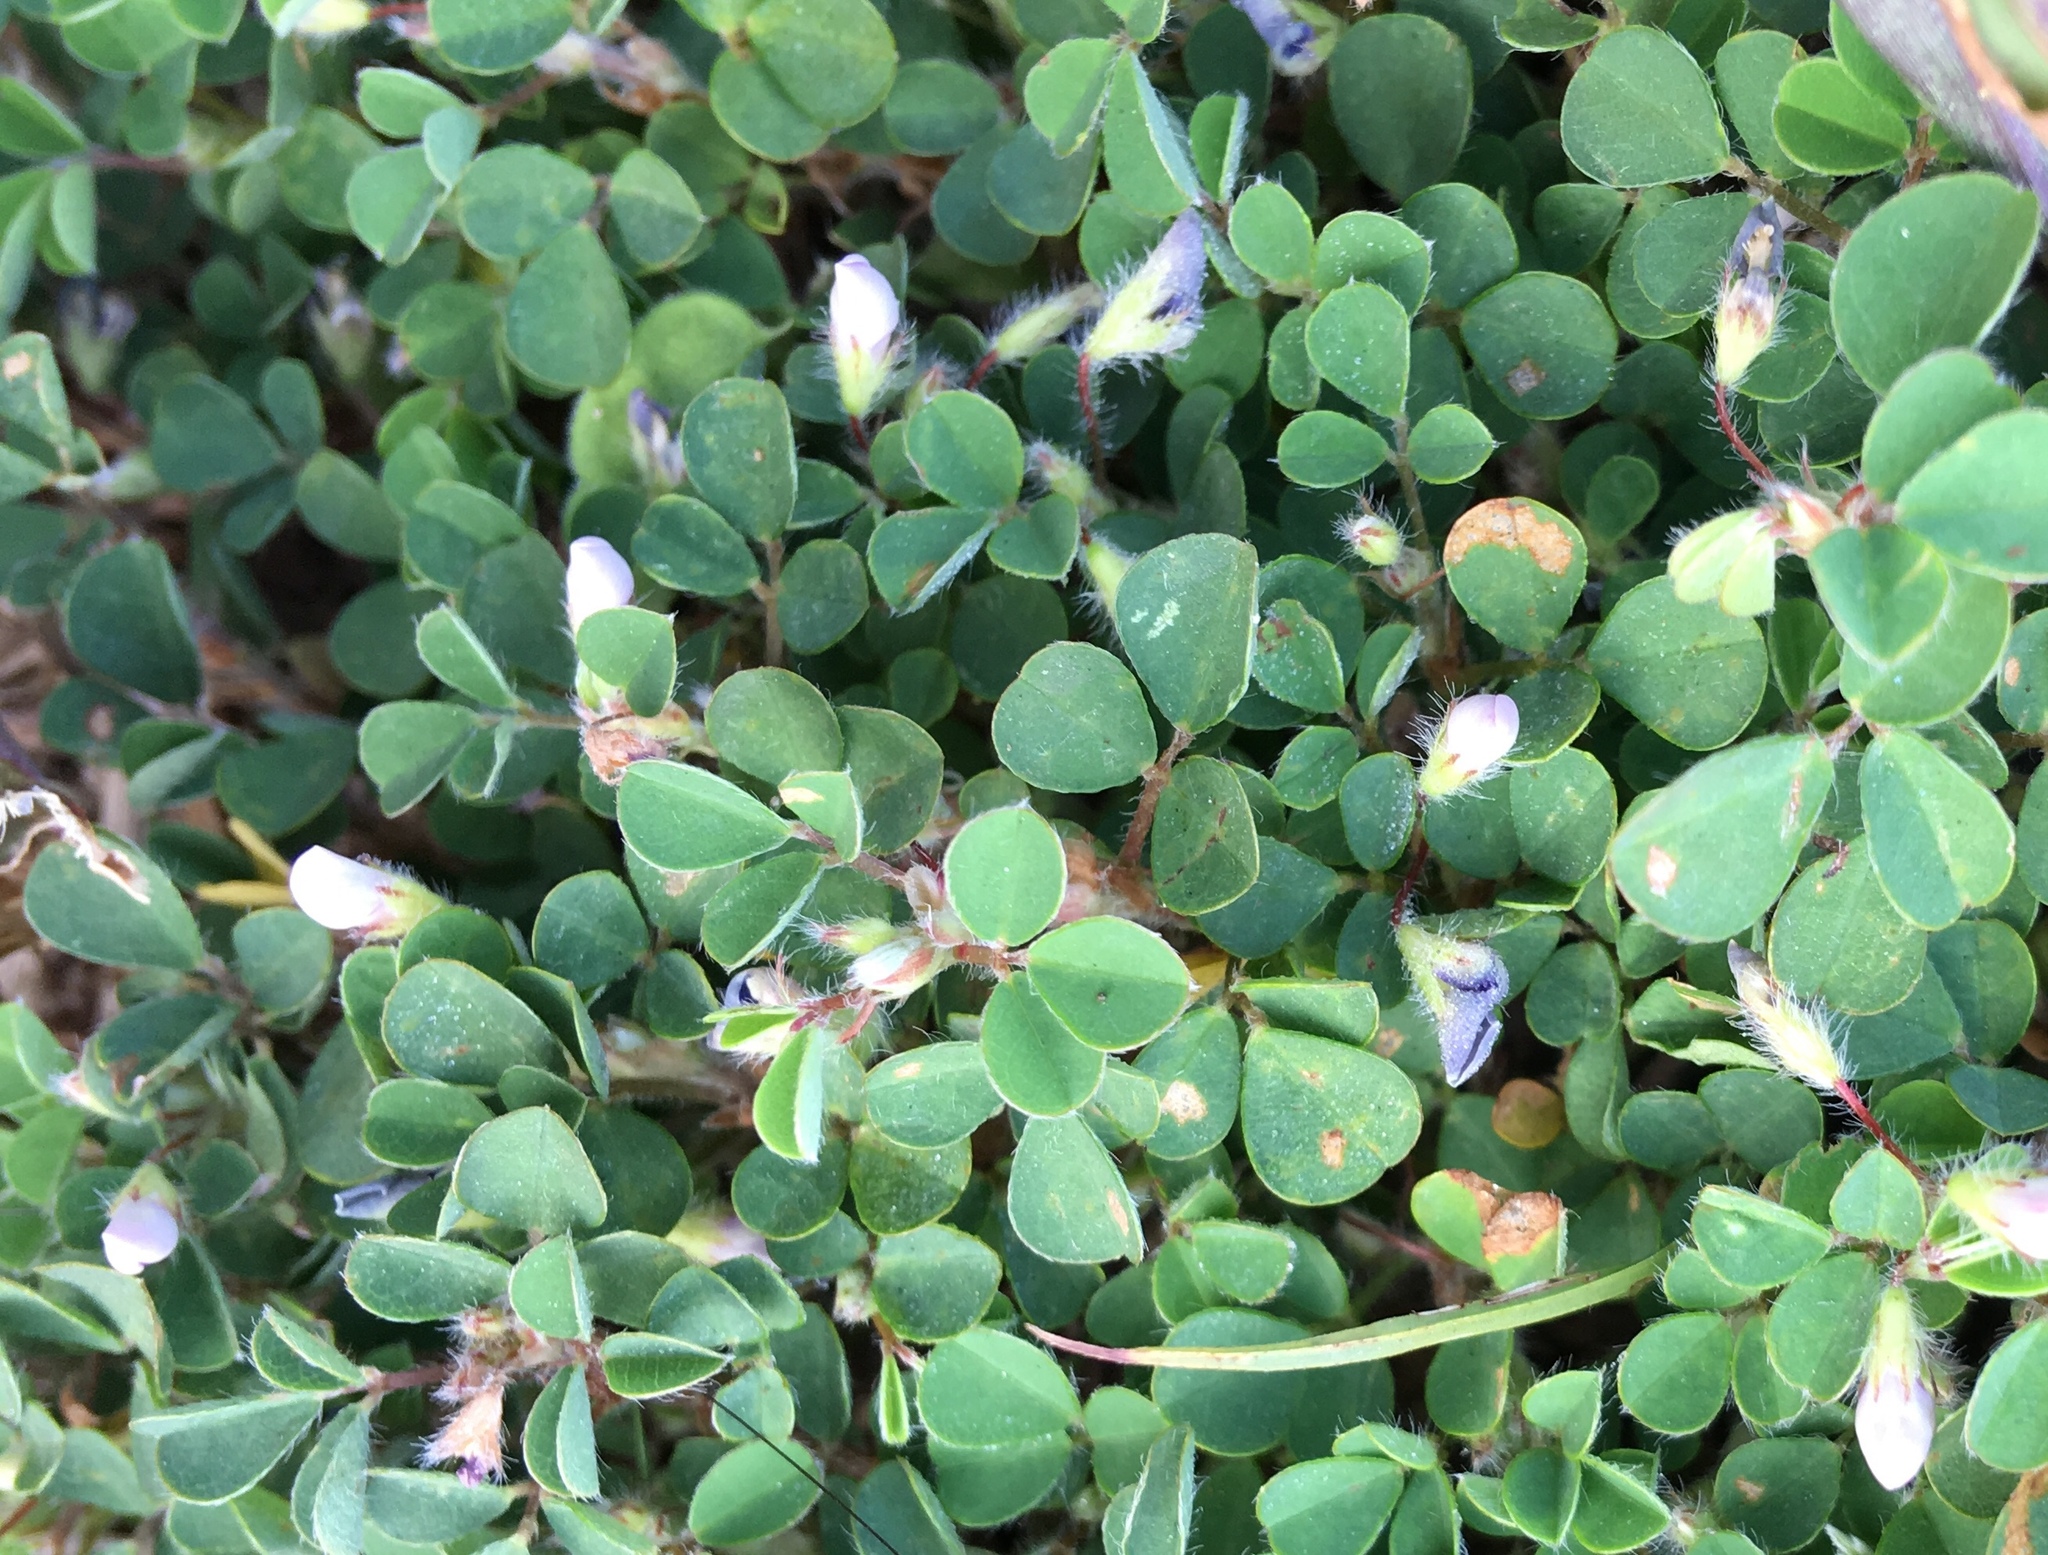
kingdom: Plantae
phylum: Tracheophyta
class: Magnoliopsida
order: Fabales
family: Fabaceae
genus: Grona
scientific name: Grona triflora
